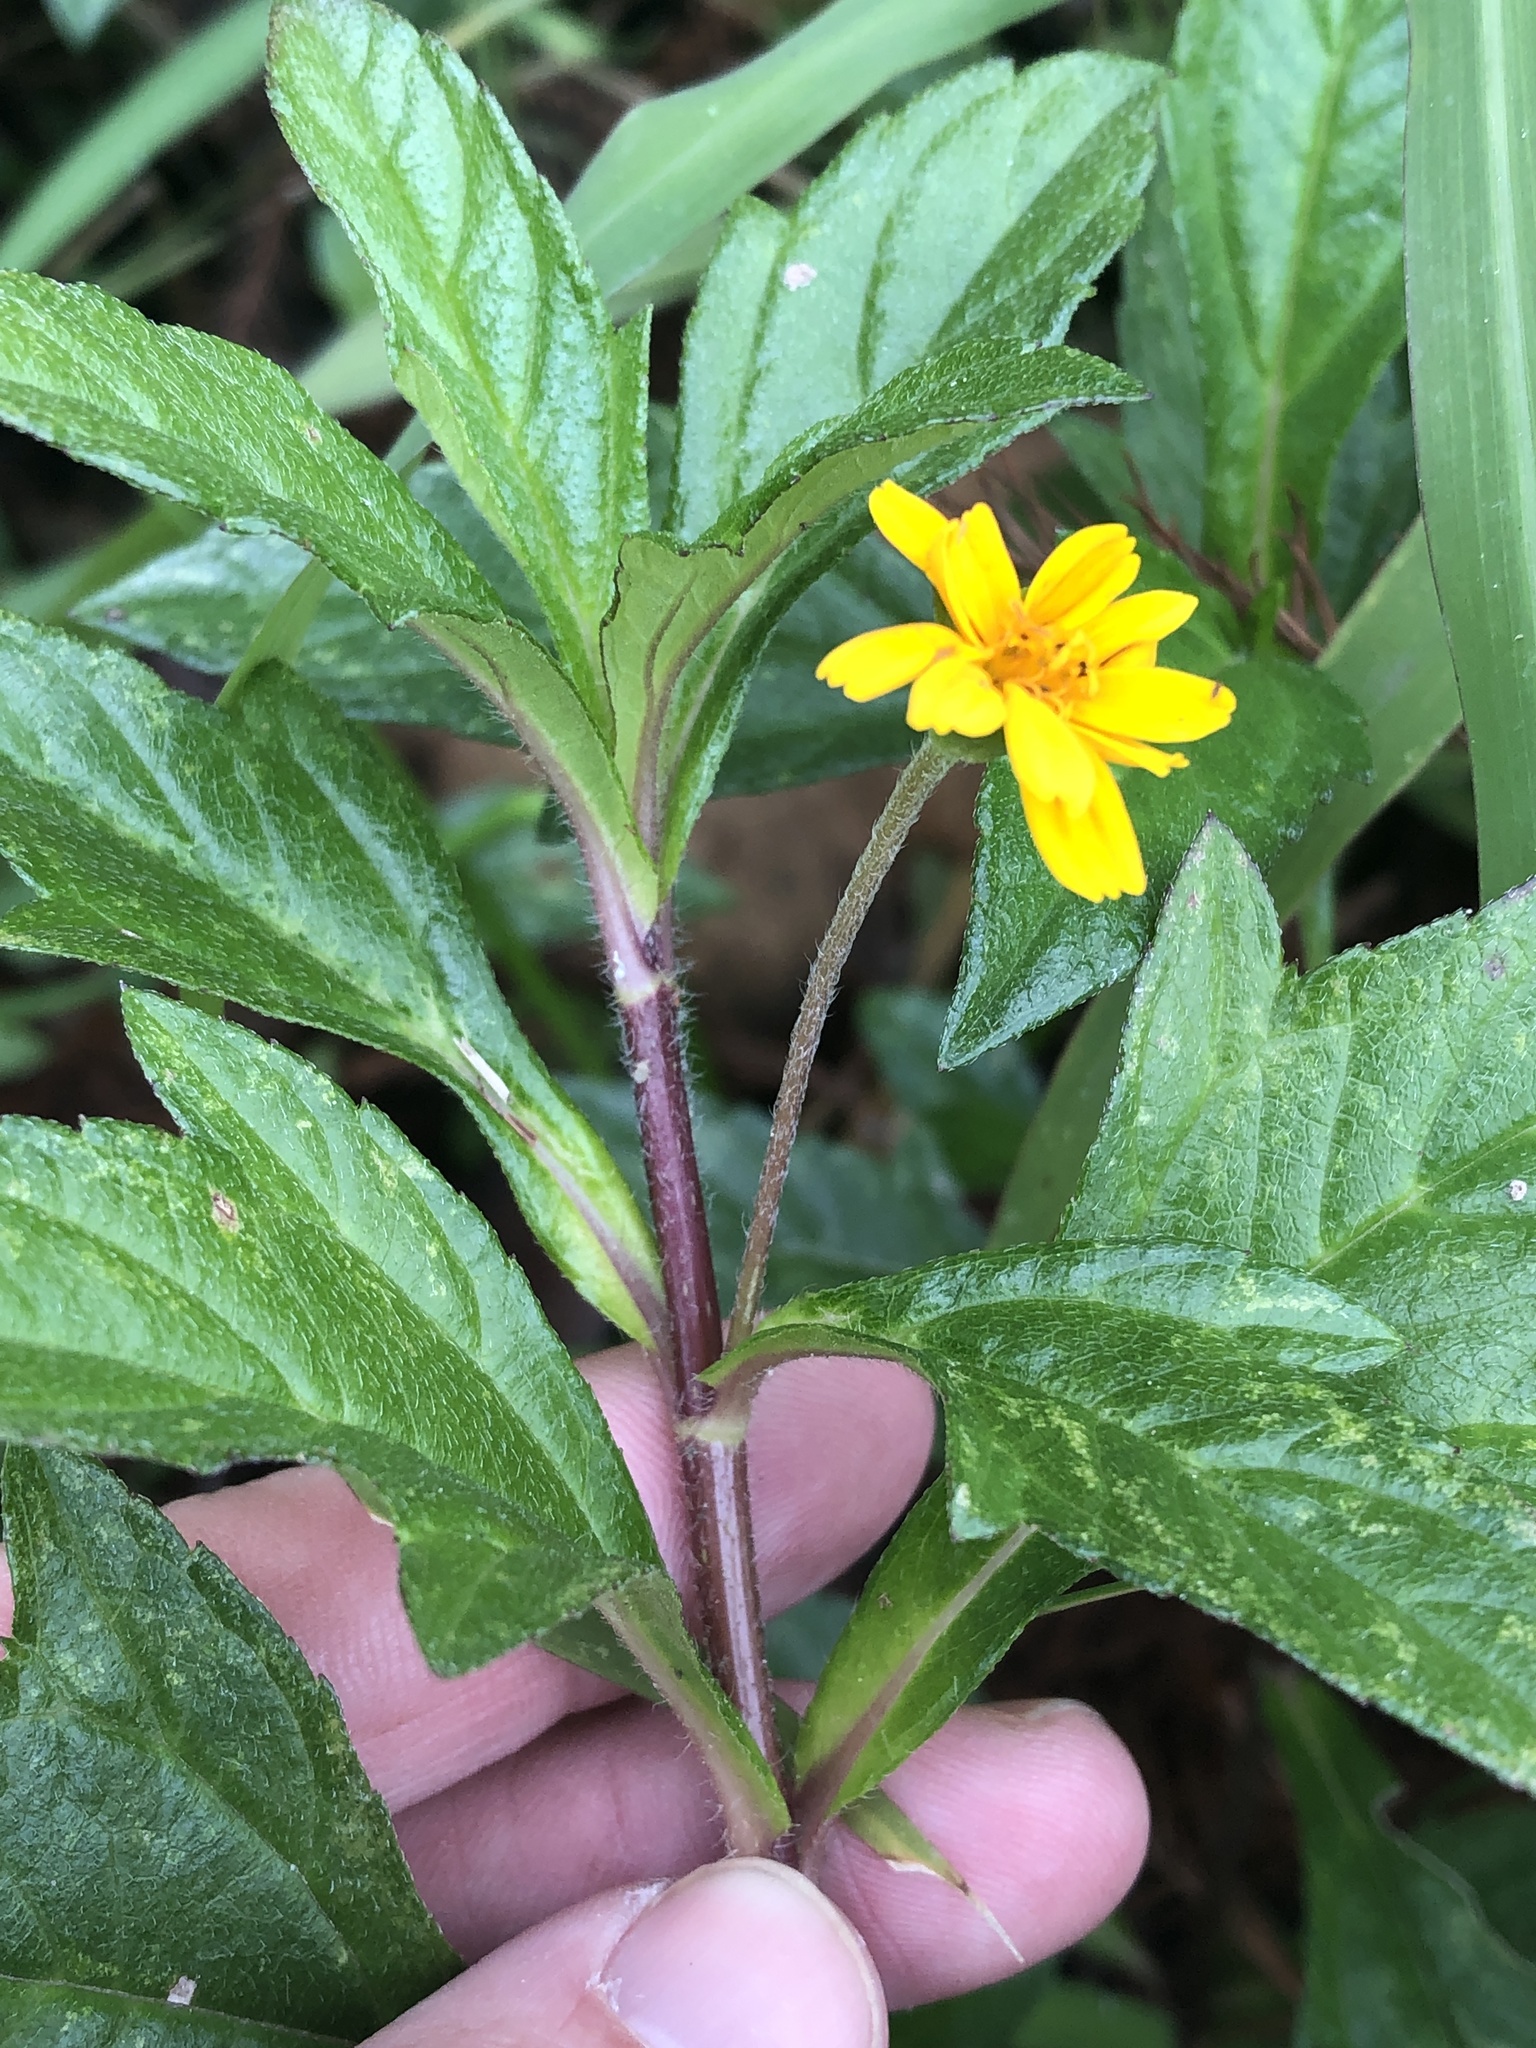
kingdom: Plantae
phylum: Tracheophyta
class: Magnoliopsida
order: Asterales
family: Asteraceae
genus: Sphagneticola
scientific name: Sphagneticola trilobata
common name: Bay biscayne creeping-oxeye
